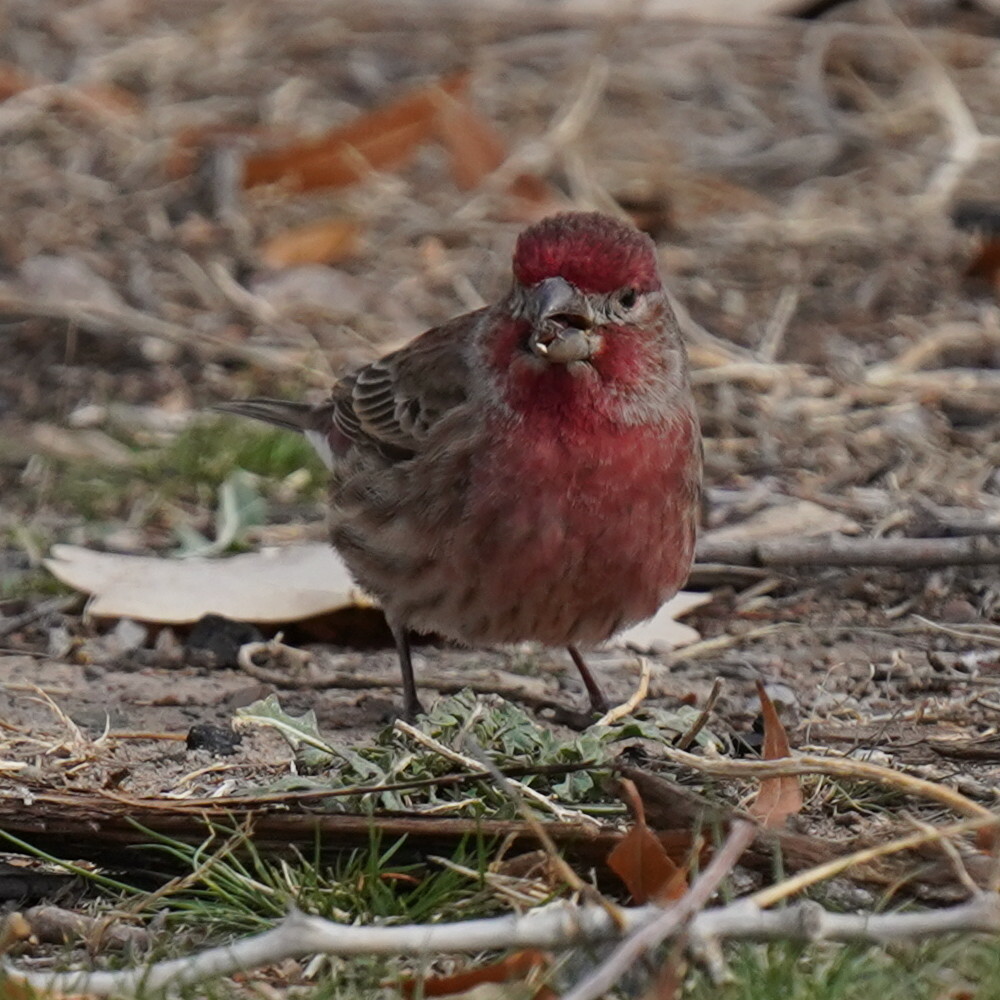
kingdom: Animalia
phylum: Chordata
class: Aves
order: Passeriformes
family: Fringillidae
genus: Haemorhous
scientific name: Haemorhous mexicanus
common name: House finch
